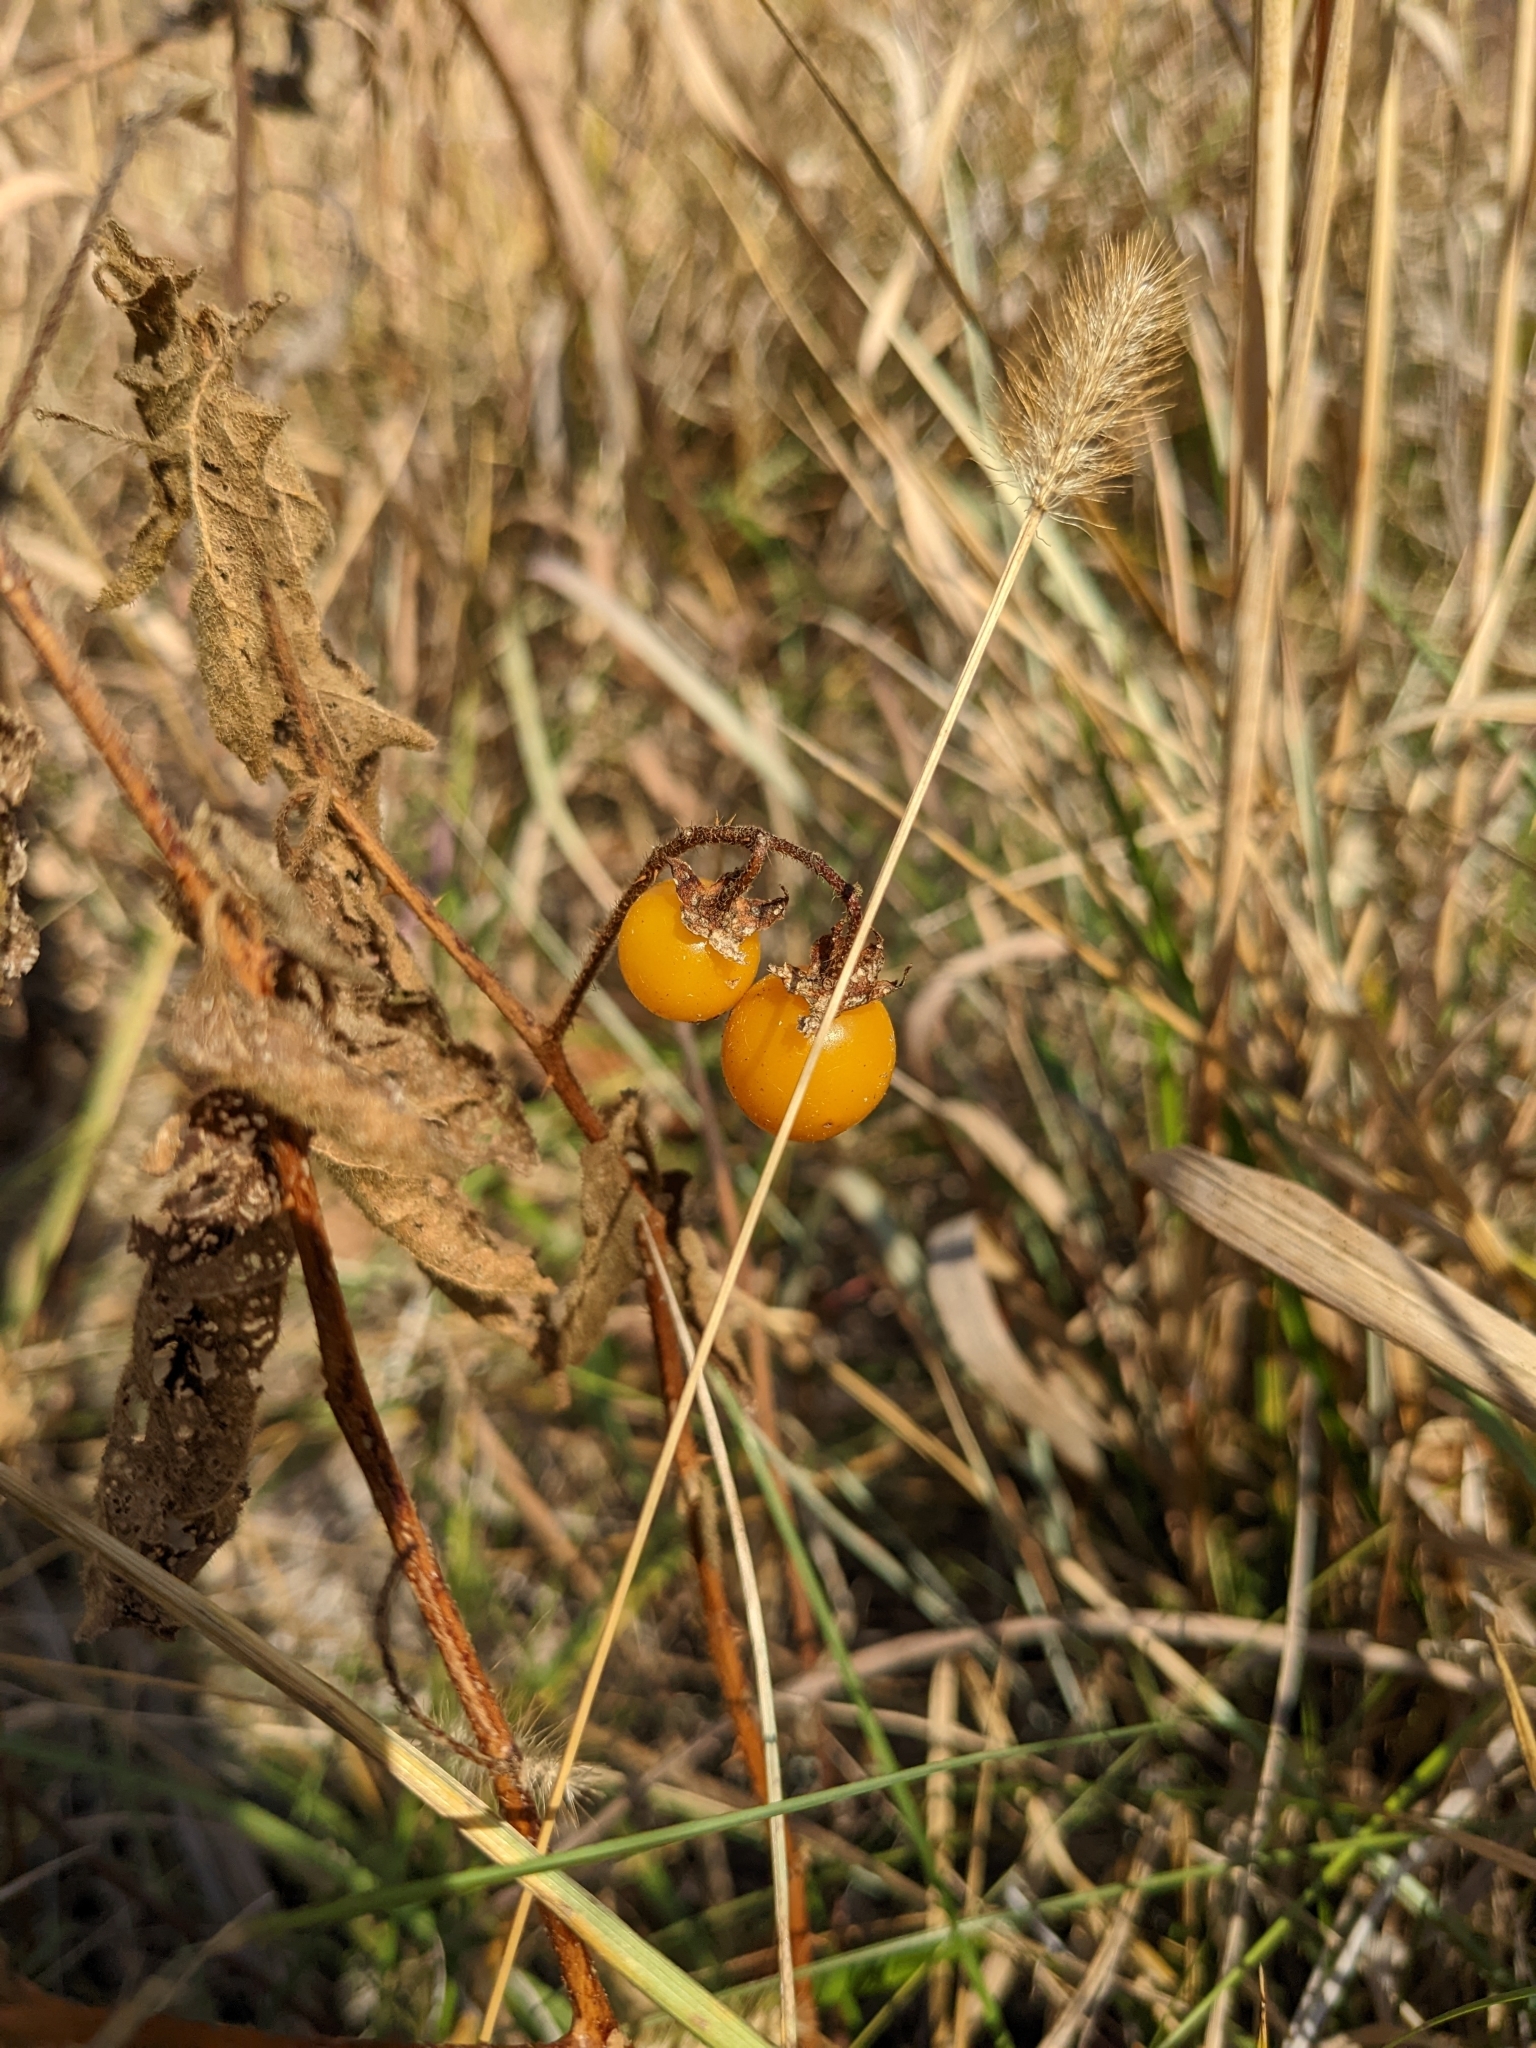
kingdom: Plantae
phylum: Tracheophyta
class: Magnoliopsida
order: Solanales
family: Solanaceae
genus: Solanum
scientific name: Solanum carolinense
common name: Horse-nettle
